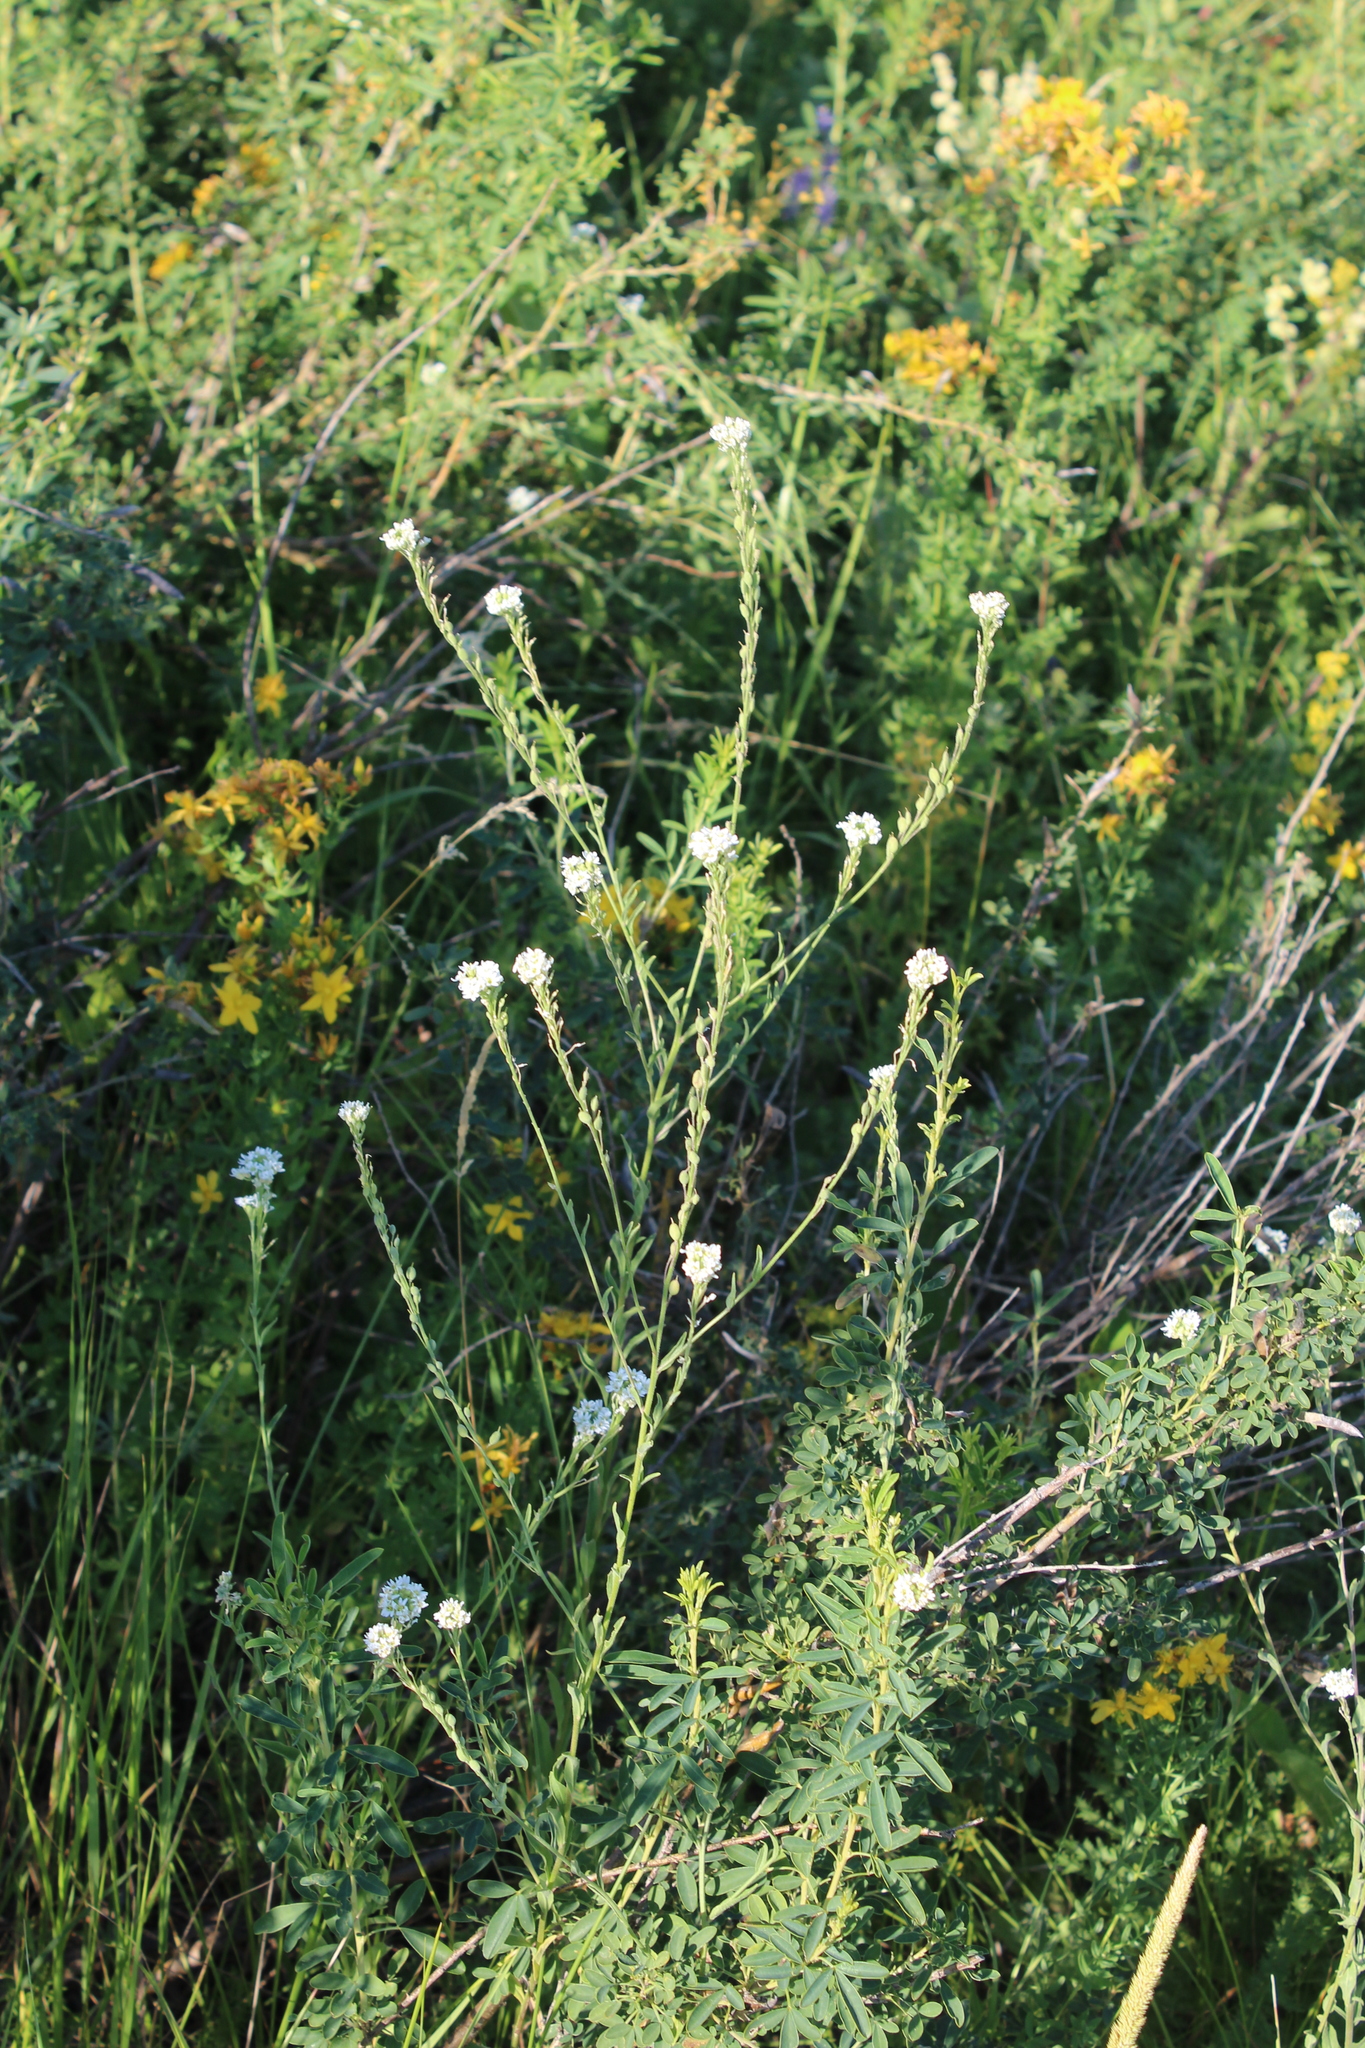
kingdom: Plantae
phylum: Tracheophyta
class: Magnoliopsida
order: Brassicales
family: Brassicaceae
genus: Berteroa
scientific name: Berteroa incana
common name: Hoary alison
